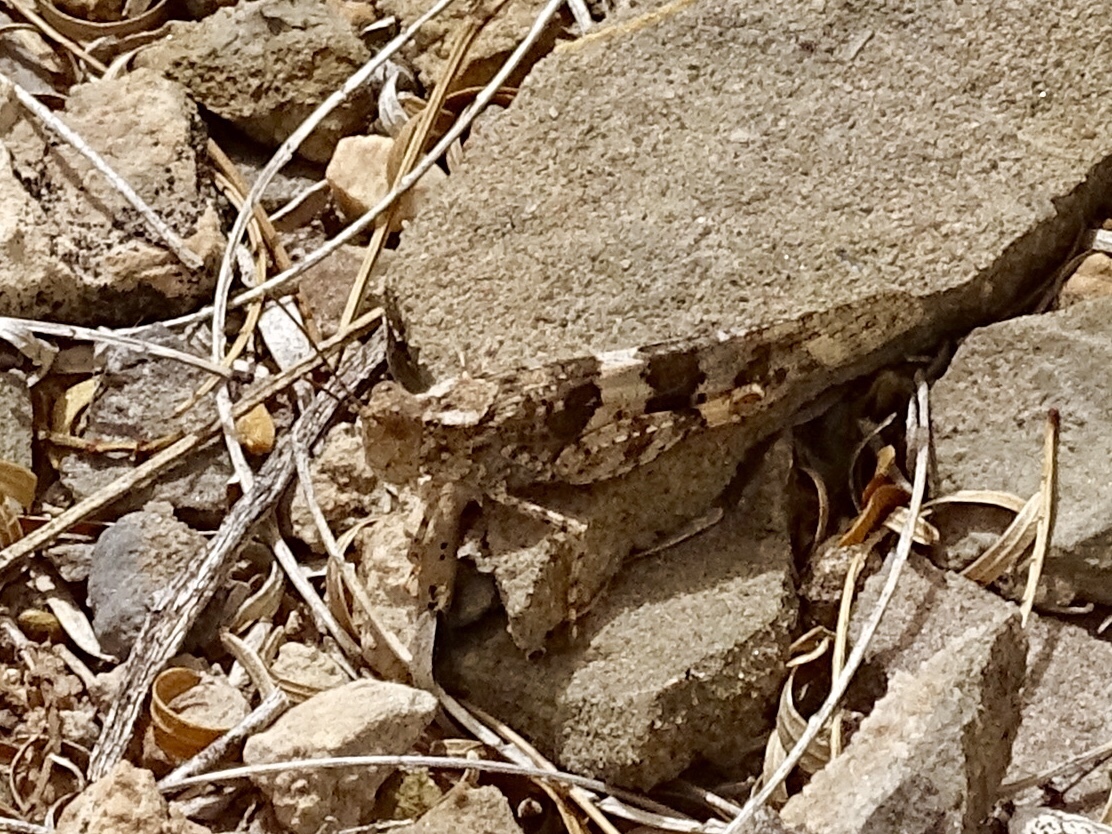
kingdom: Animalia
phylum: Arthropoda
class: Insecta
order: Orthoptera
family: Acrididae
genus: Trimerotropis
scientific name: Trimerotropis pallidipennis
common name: Pallid-winged grasshopper
